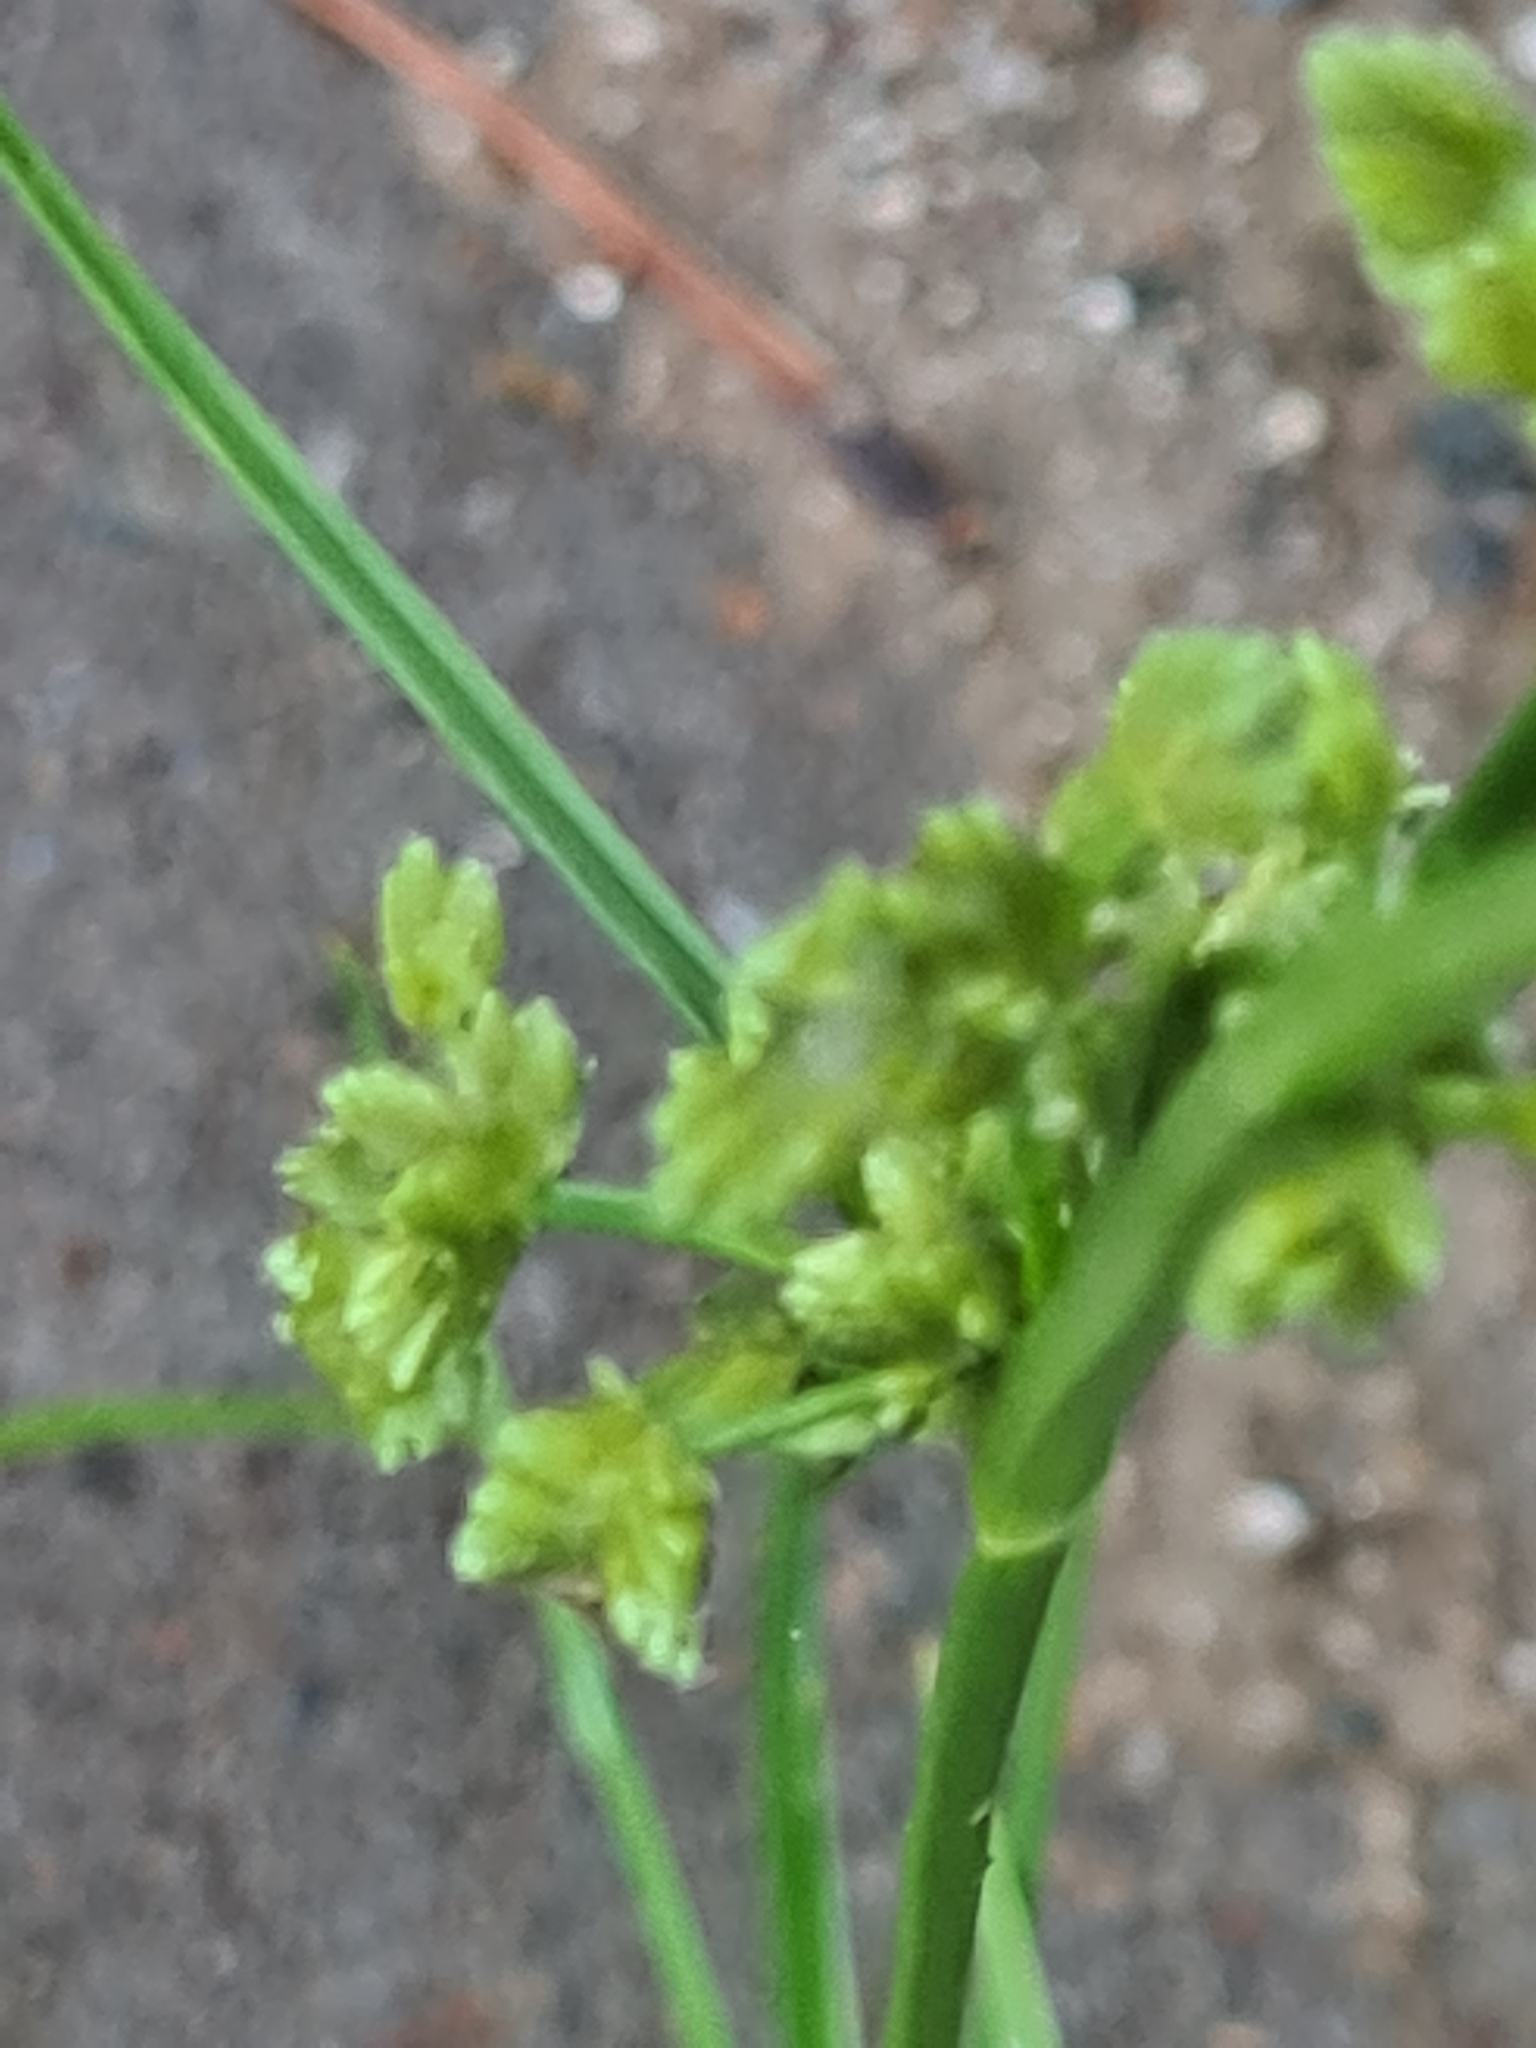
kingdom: Plantae
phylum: Tracheophyta
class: Liliopsida
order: Poales
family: Cyperaceae
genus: Cyperus
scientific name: Cyperus surinamensis
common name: Tropical flat sedge
